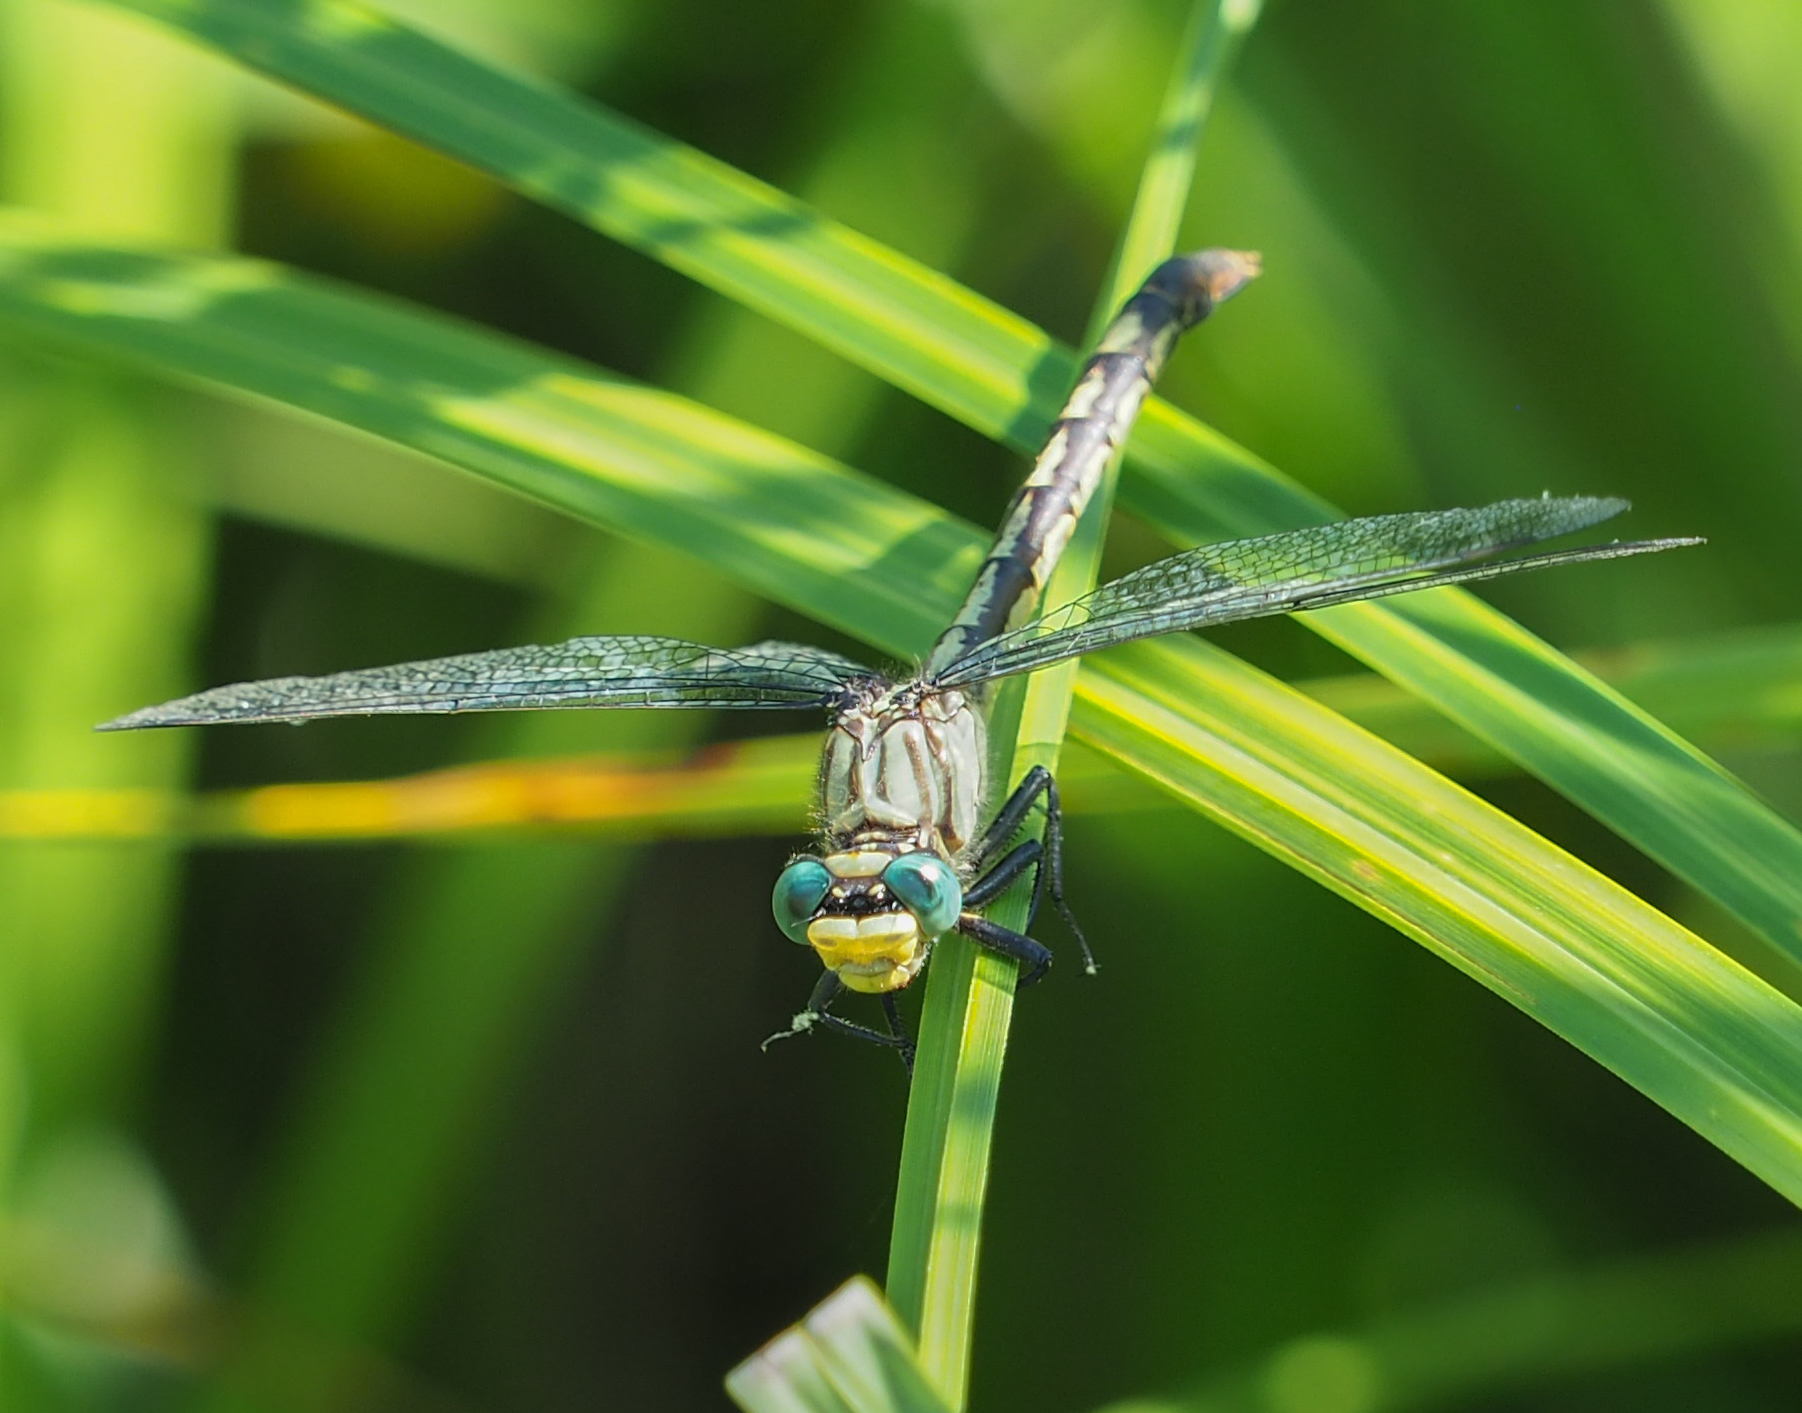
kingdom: Animalia
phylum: Arthropoda
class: Insecta
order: Odonata
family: Gomphidae
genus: Arigomphus
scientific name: Arigomphus villosipes
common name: Unicorn clubtail
